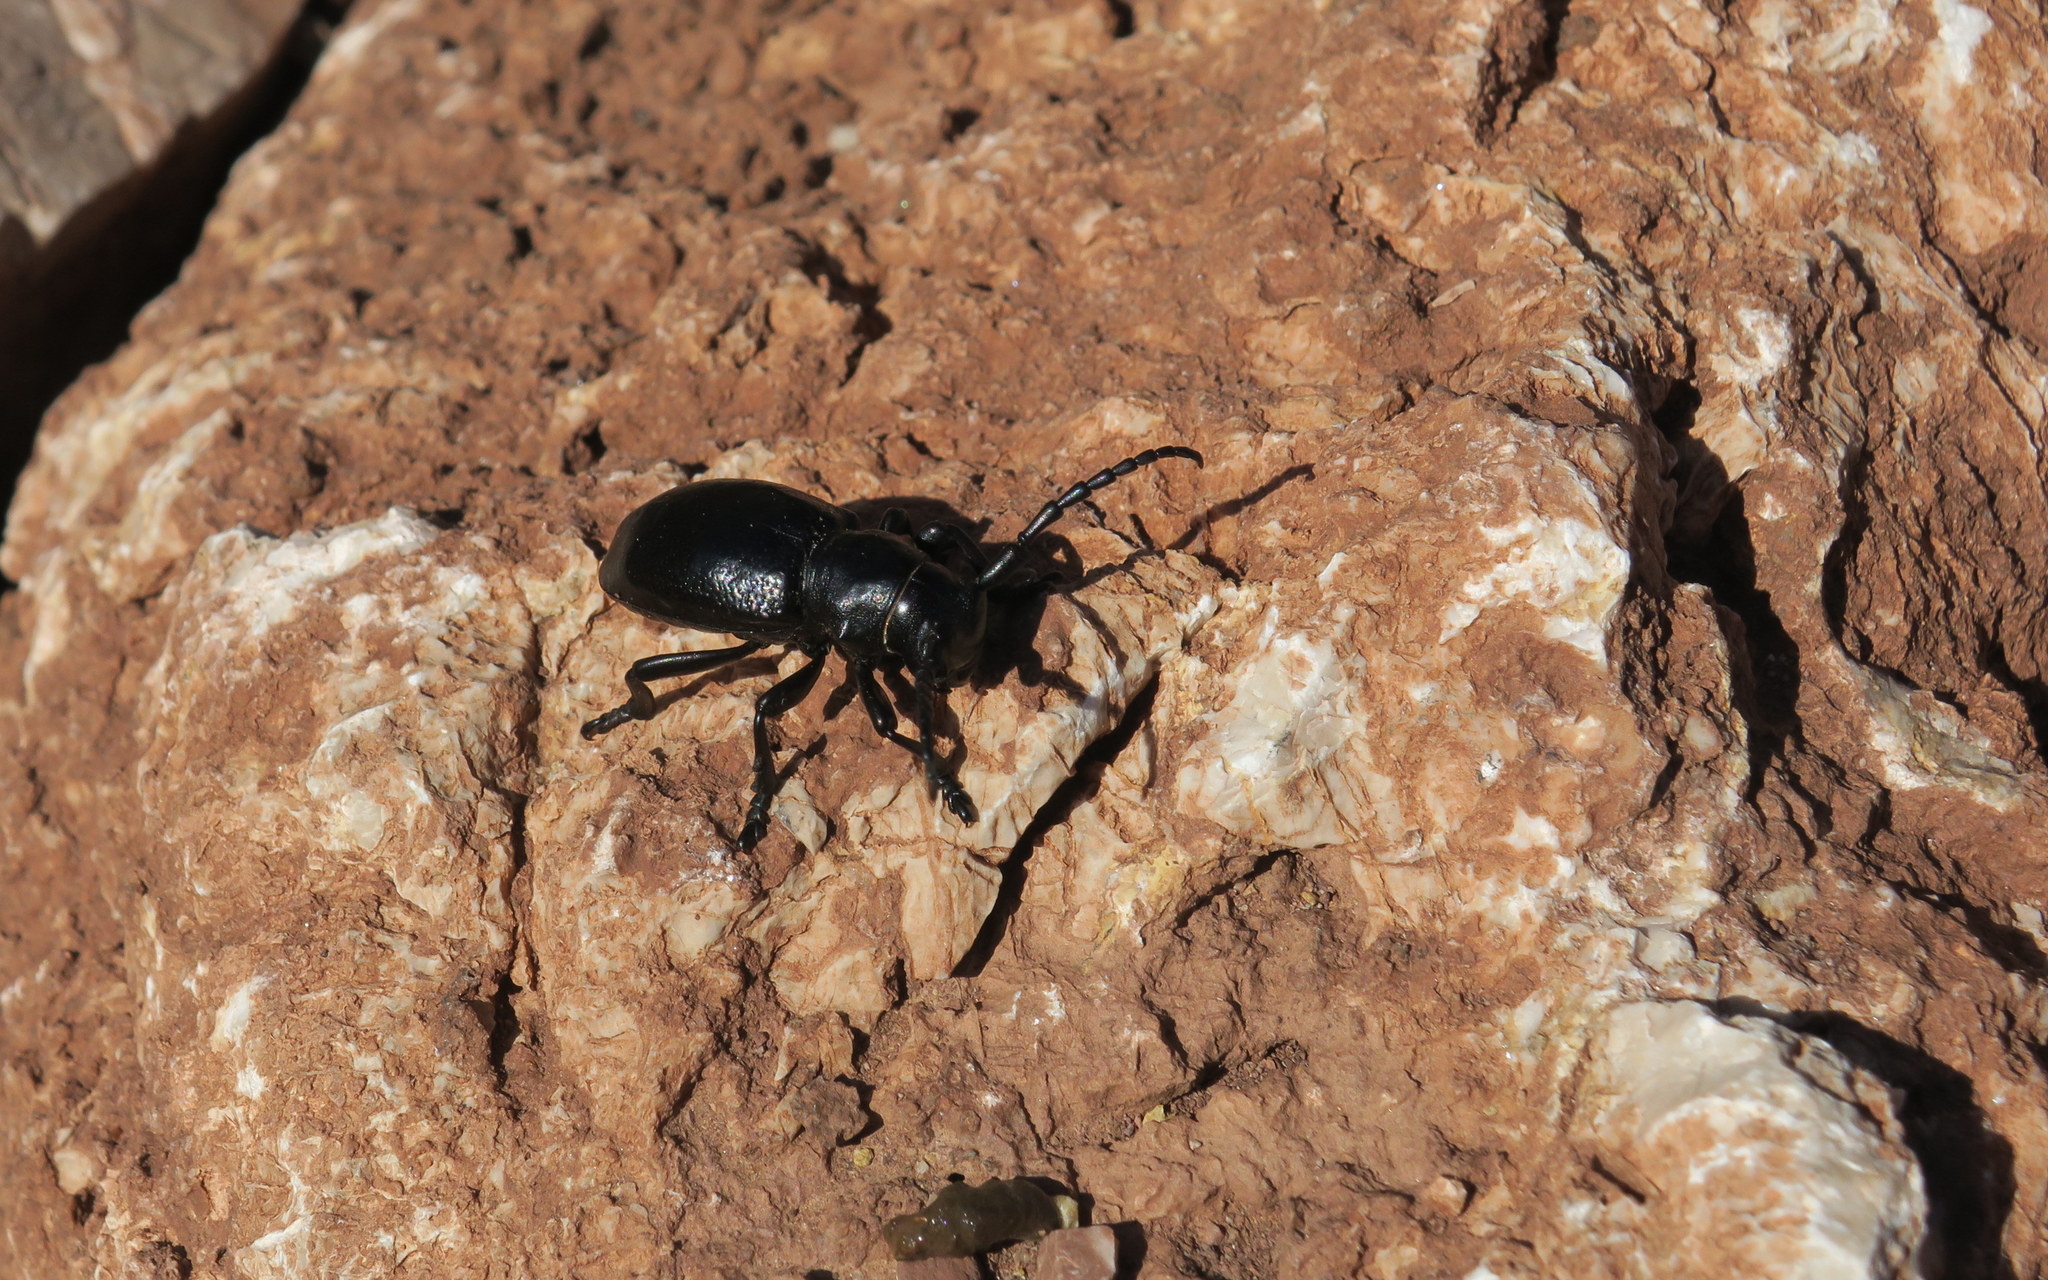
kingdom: Animalia
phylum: Arthropoda
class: Insecta
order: Coleoptera
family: Cerambycidae
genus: Herophila
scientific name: Herophila fairmairei
